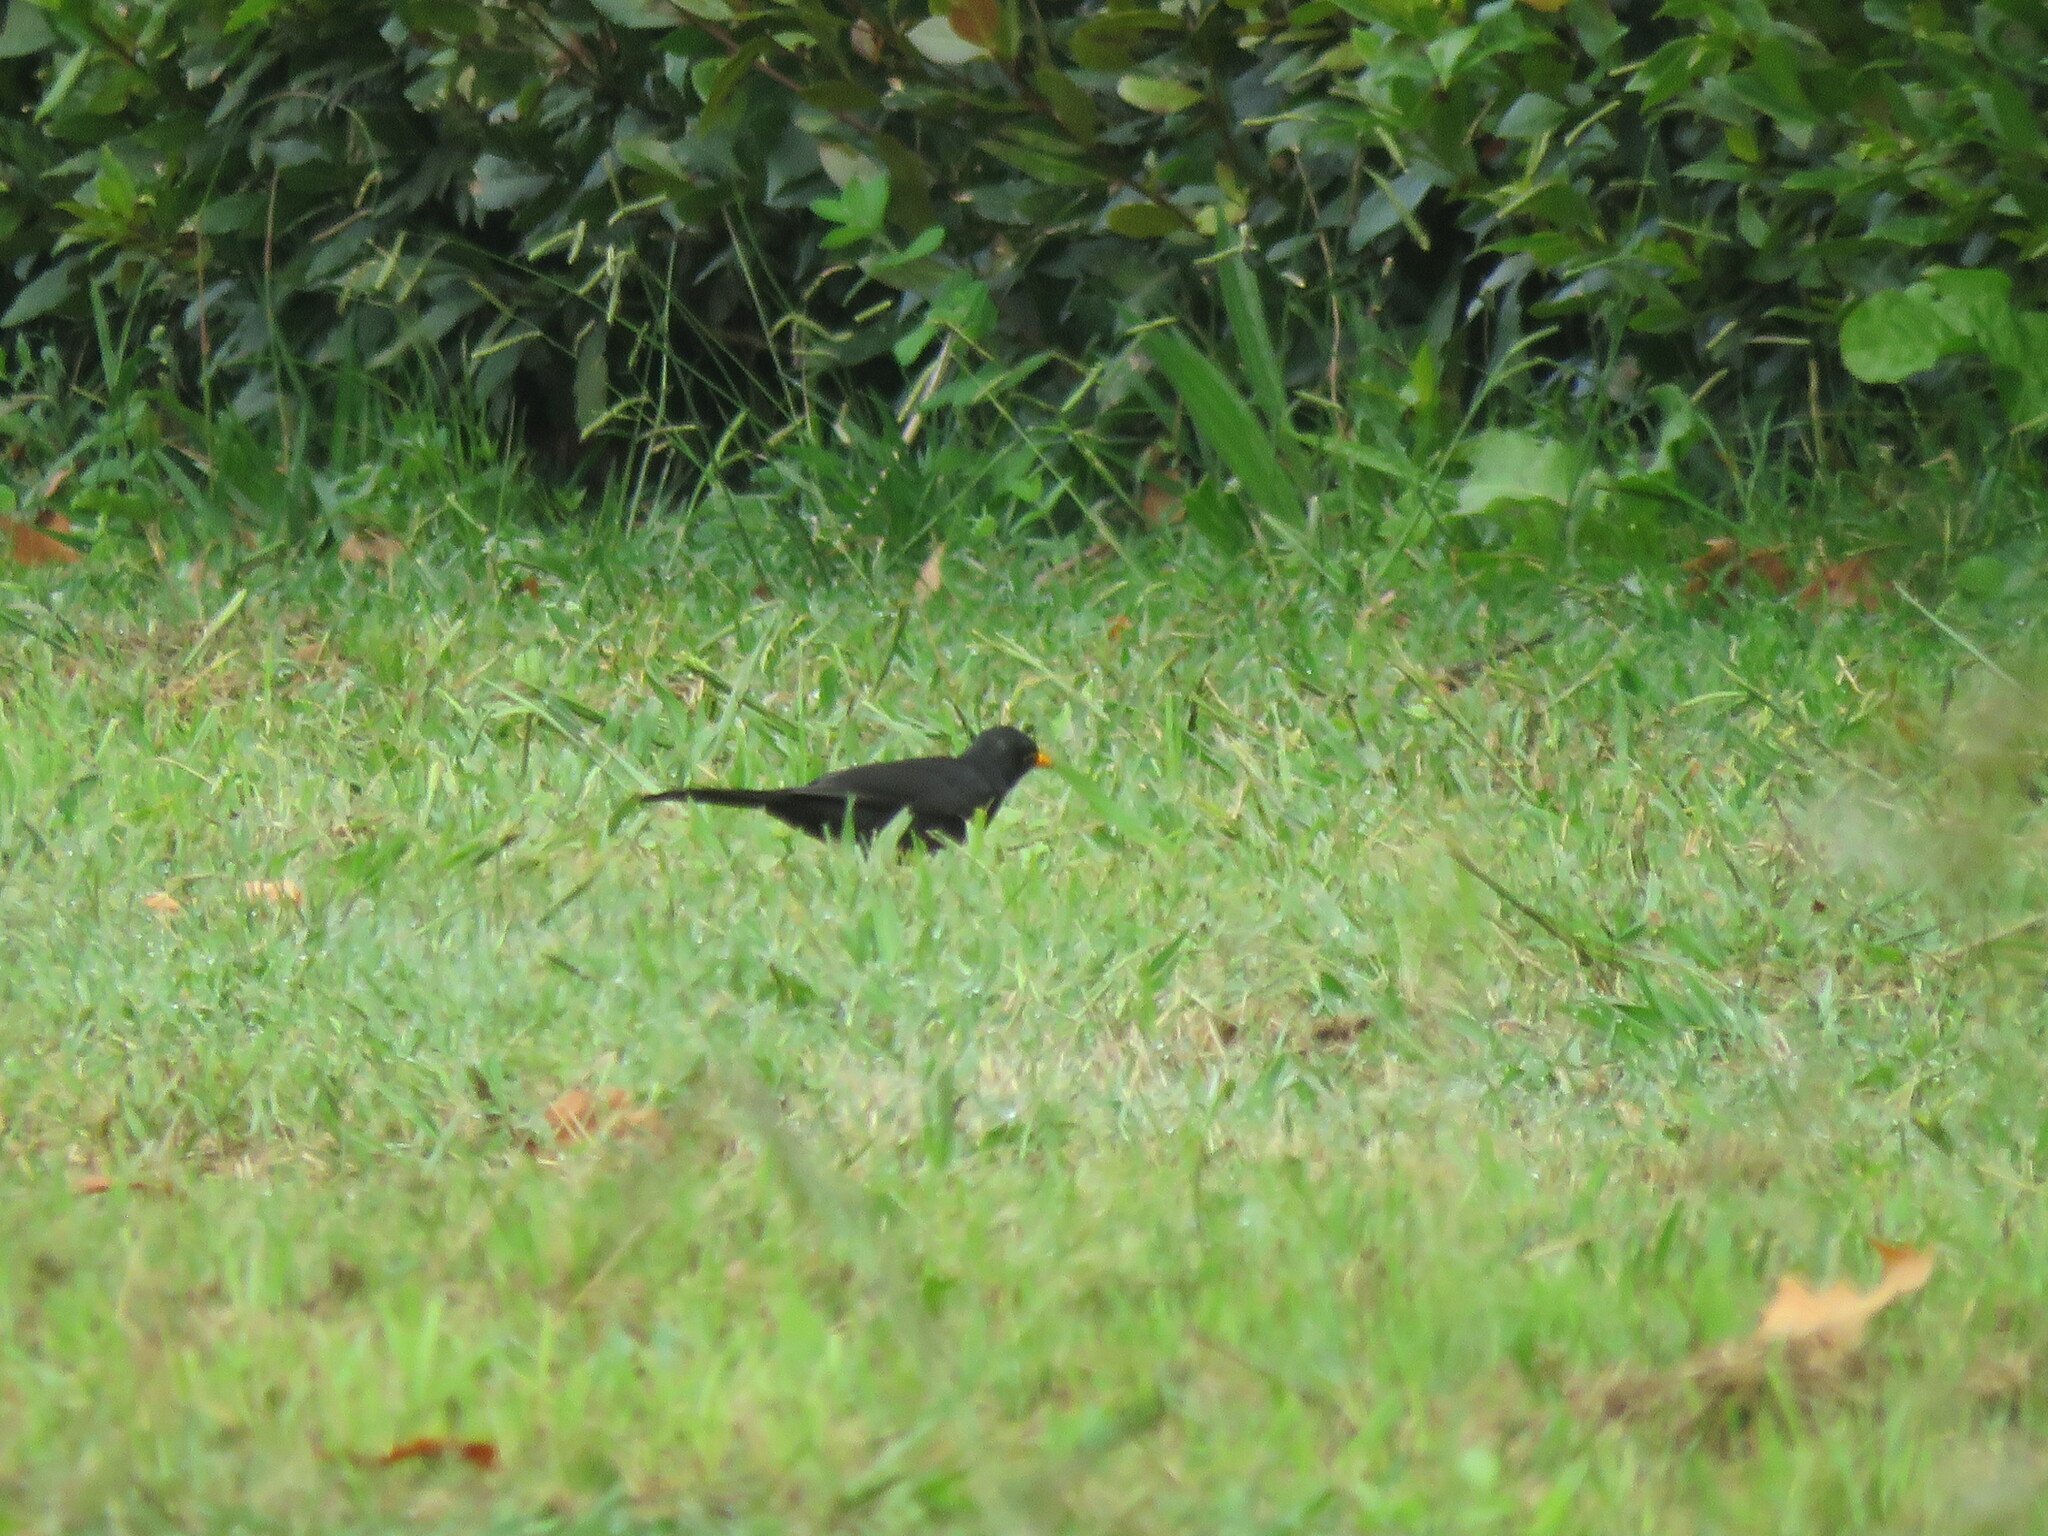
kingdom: Animalia
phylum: Chordata
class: Aves
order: Passeriformes
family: Turdidae
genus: Turdus
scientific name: Turdus merula
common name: Common blackbird
